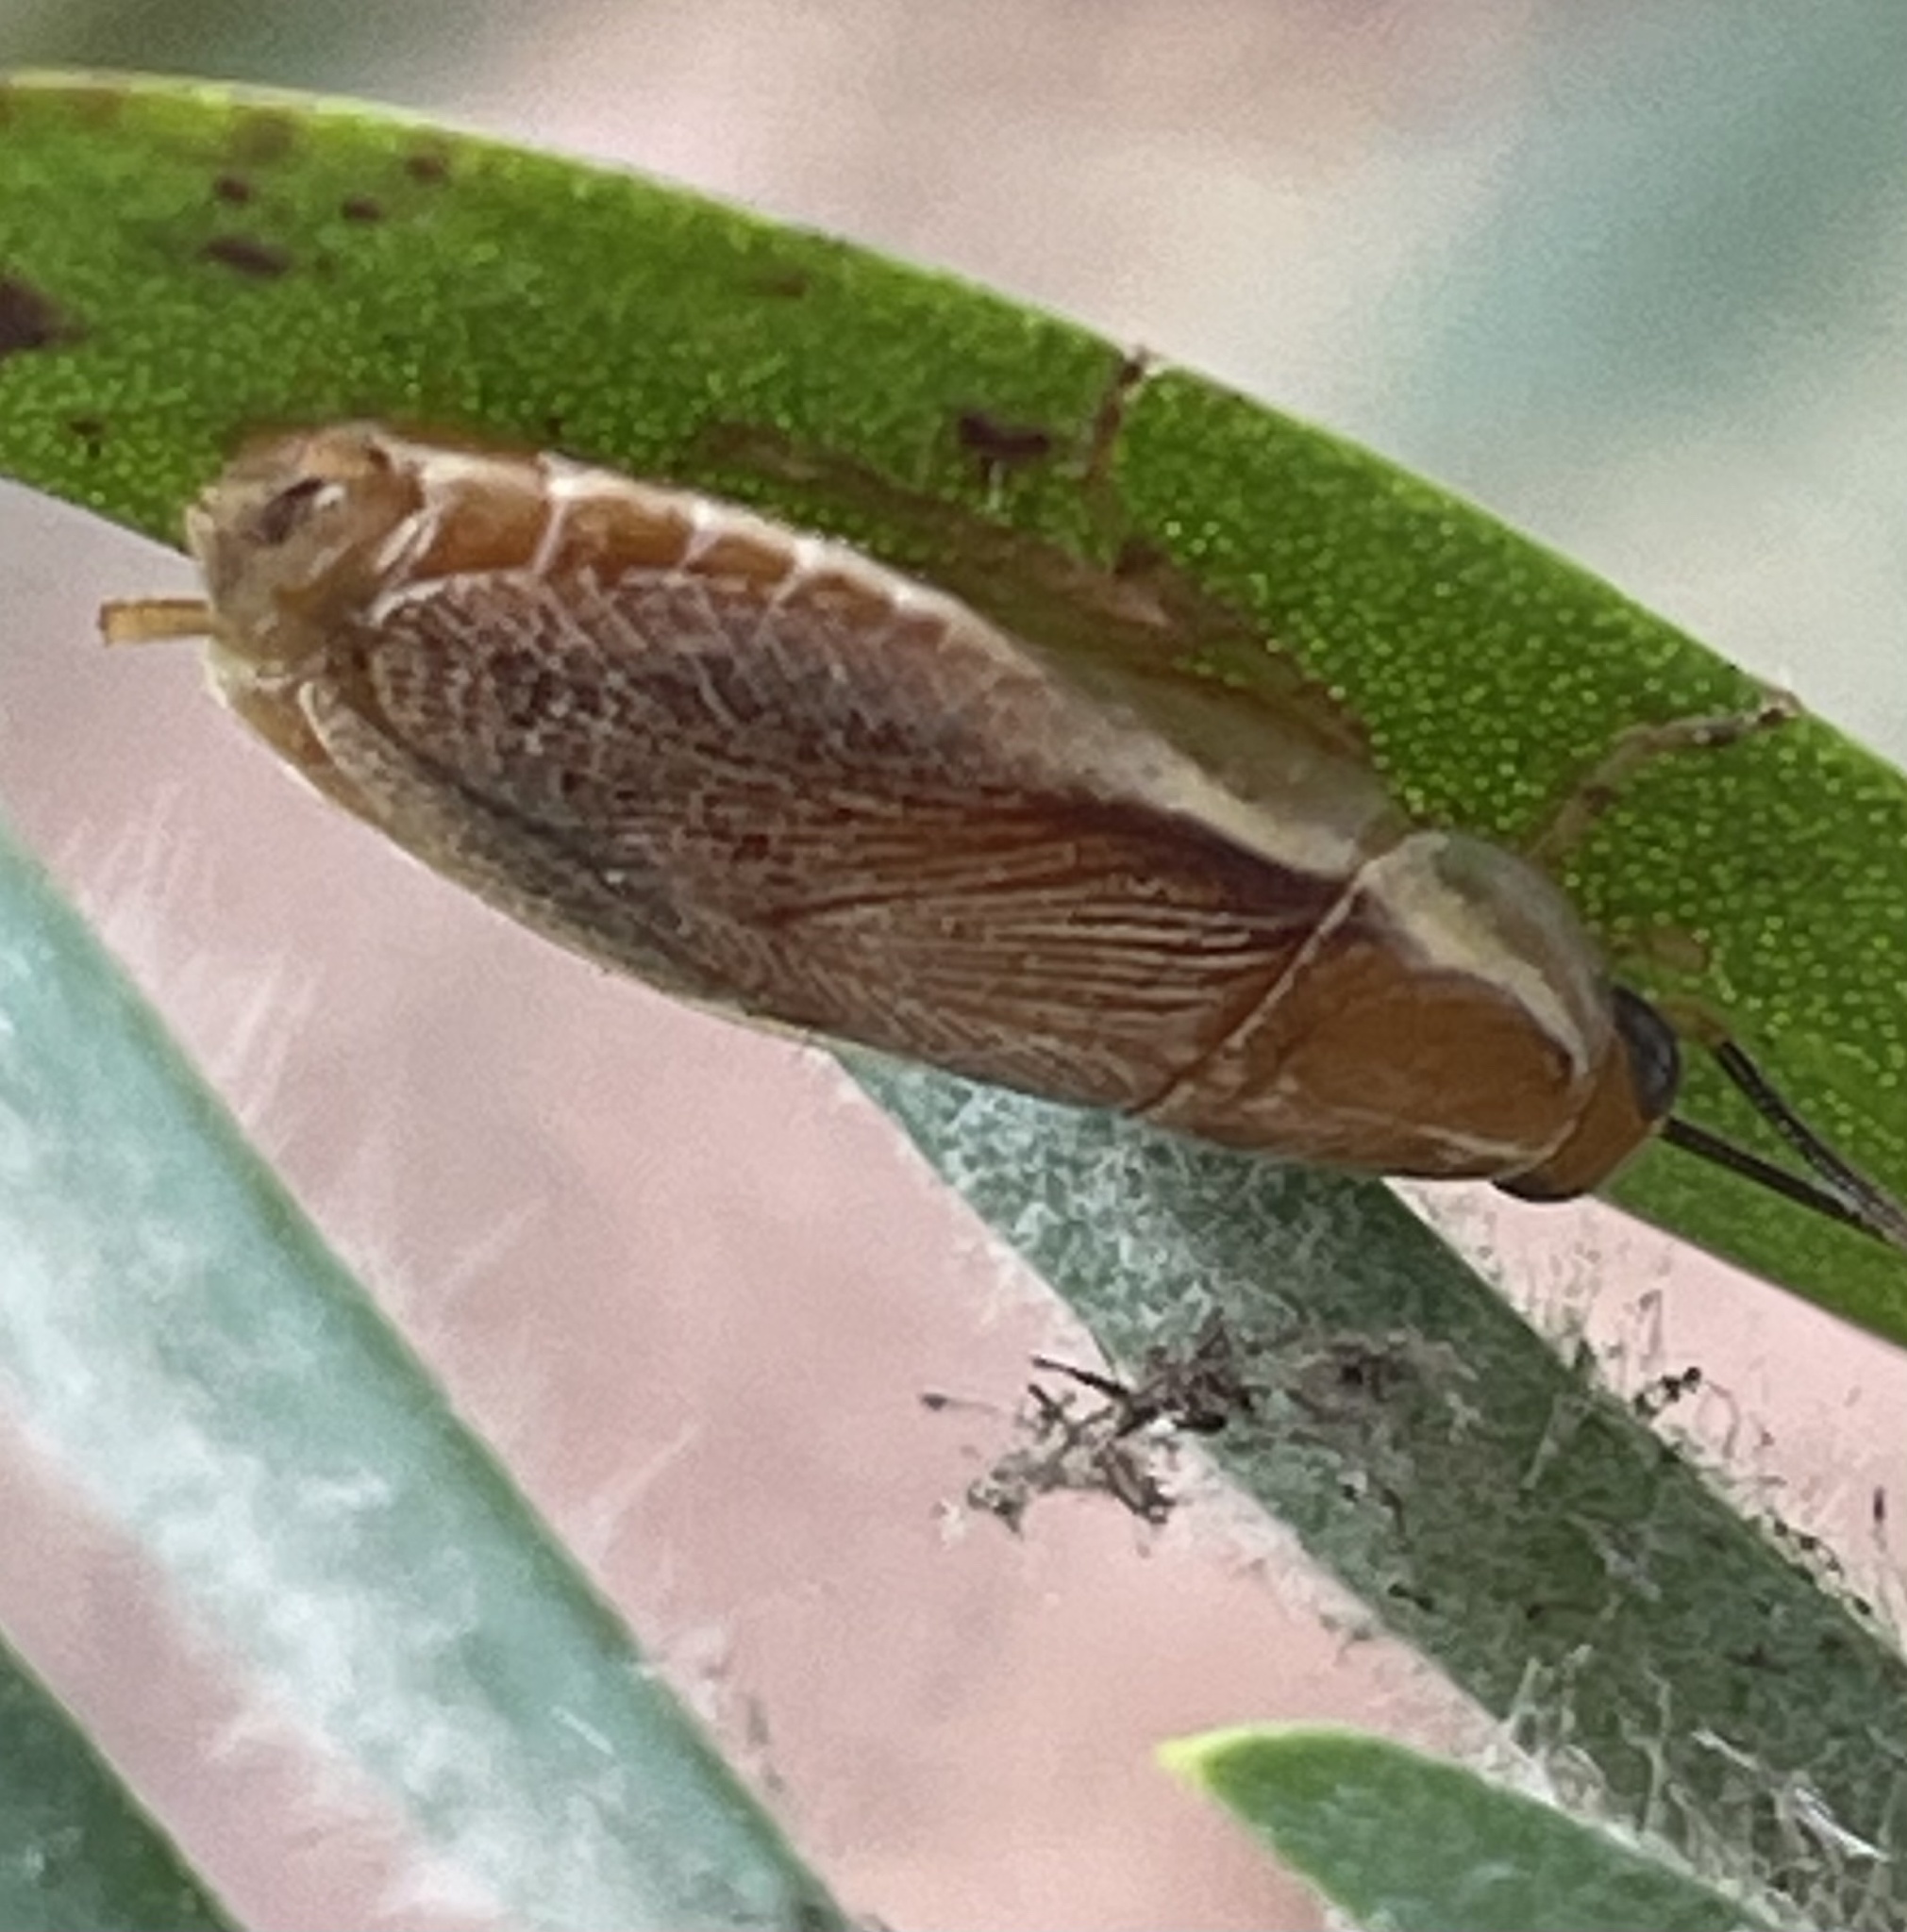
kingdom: Animalia
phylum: Arthropoda
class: Insecta
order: Blattodea
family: Ectobiidae
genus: Balta
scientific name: Balta spuria
